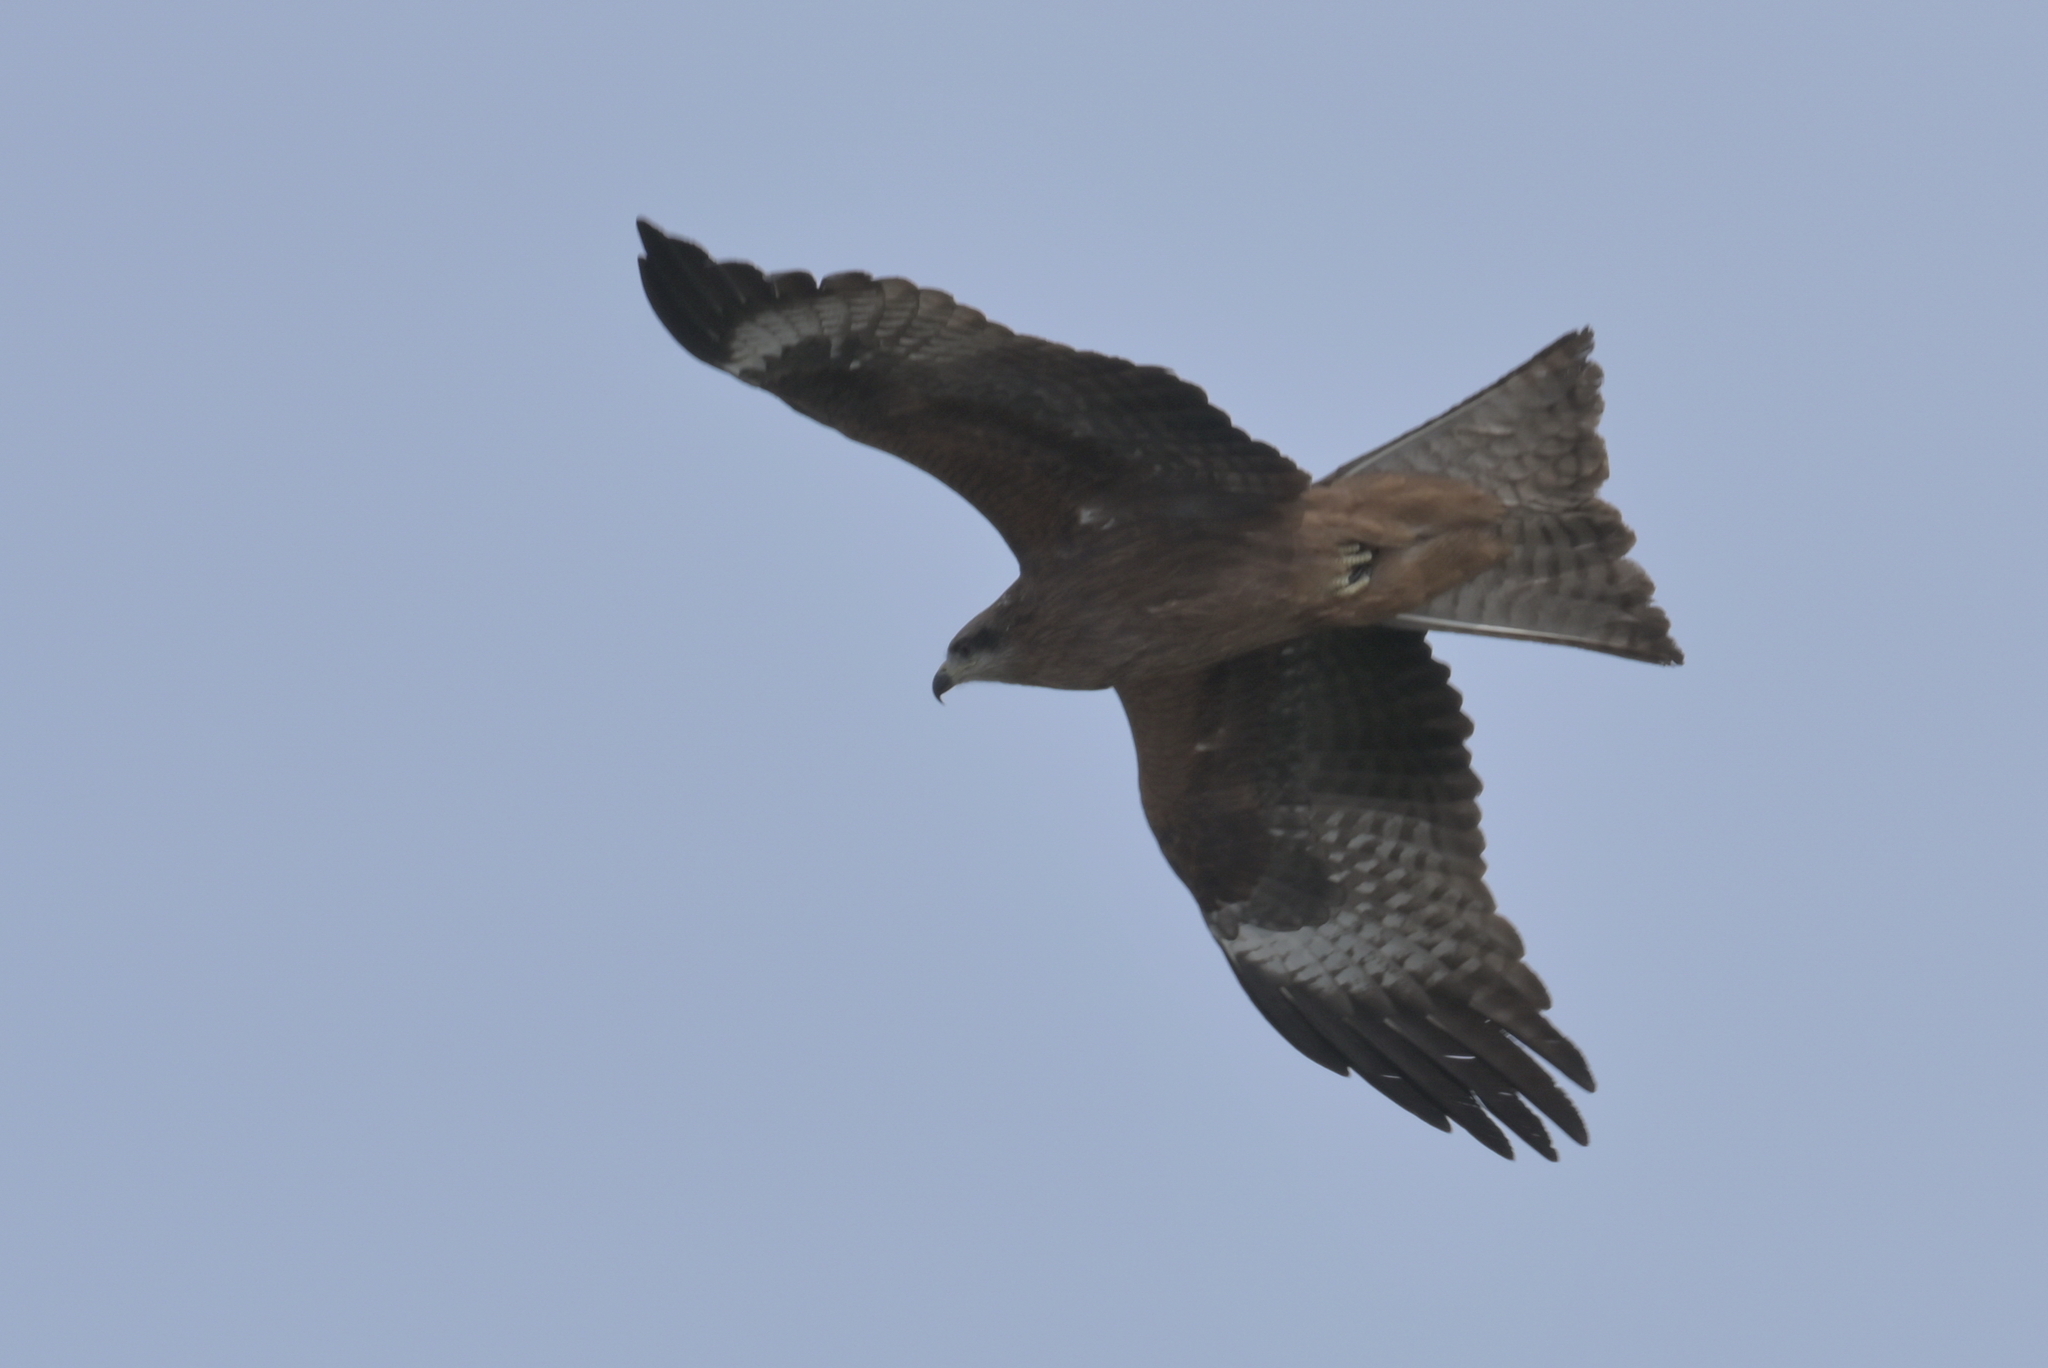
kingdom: Animalia
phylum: Chordata
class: Aves
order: Accipitriformes
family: Accipitridae
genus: Milvus
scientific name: Milvus migrans
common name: Black kite
